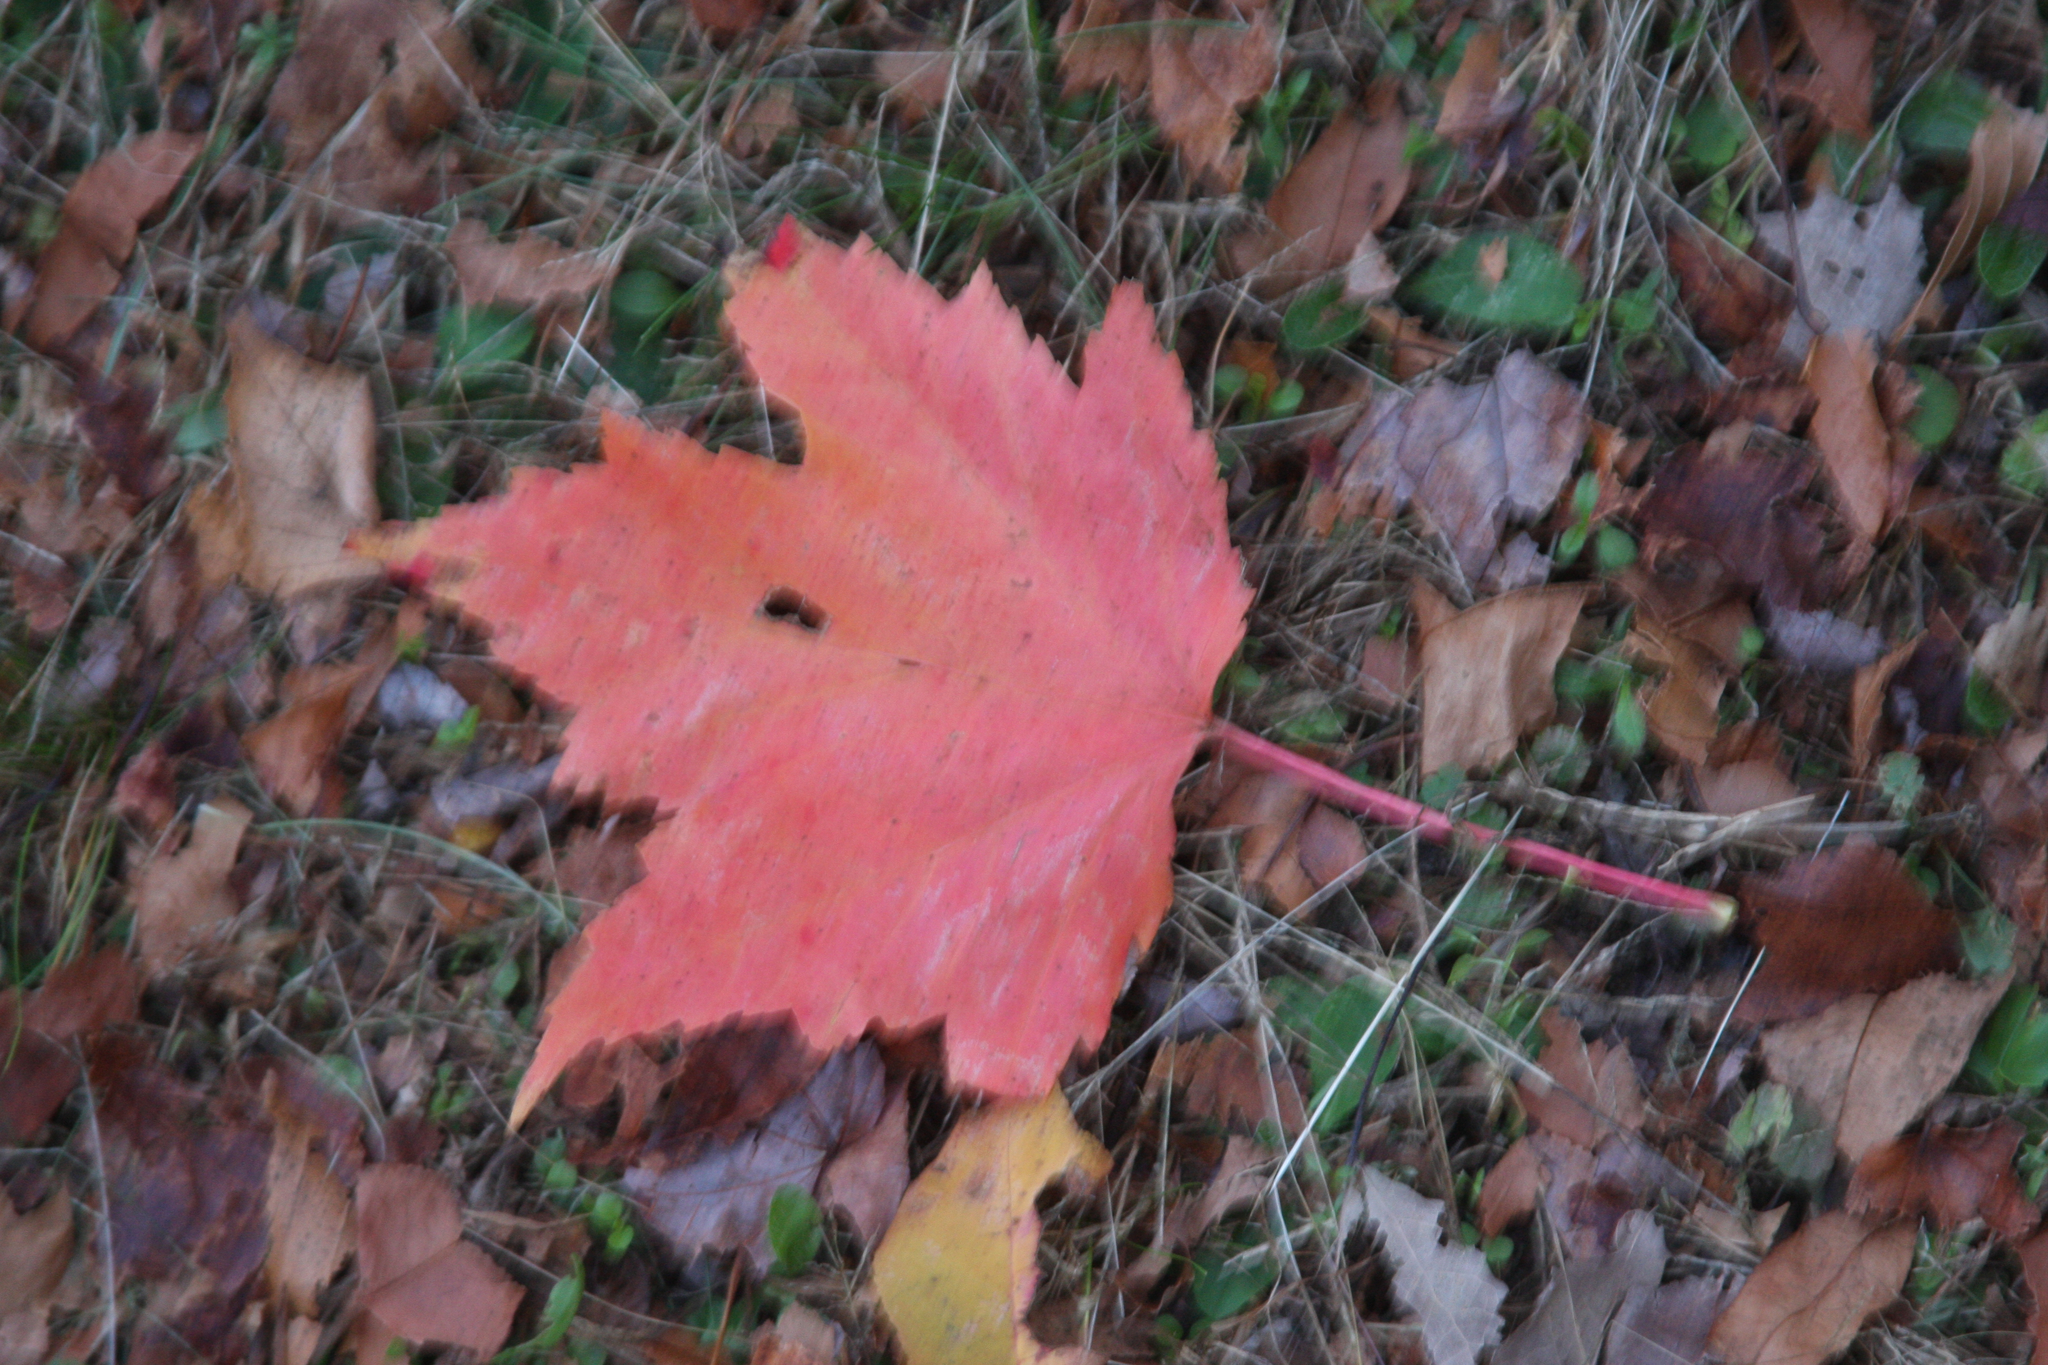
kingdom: Plantae
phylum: Tracheophyta
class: Magnoliopsida
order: Sapindales
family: Sapindaceae
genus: Acer
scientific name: Acer rubrum
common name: Red maple
